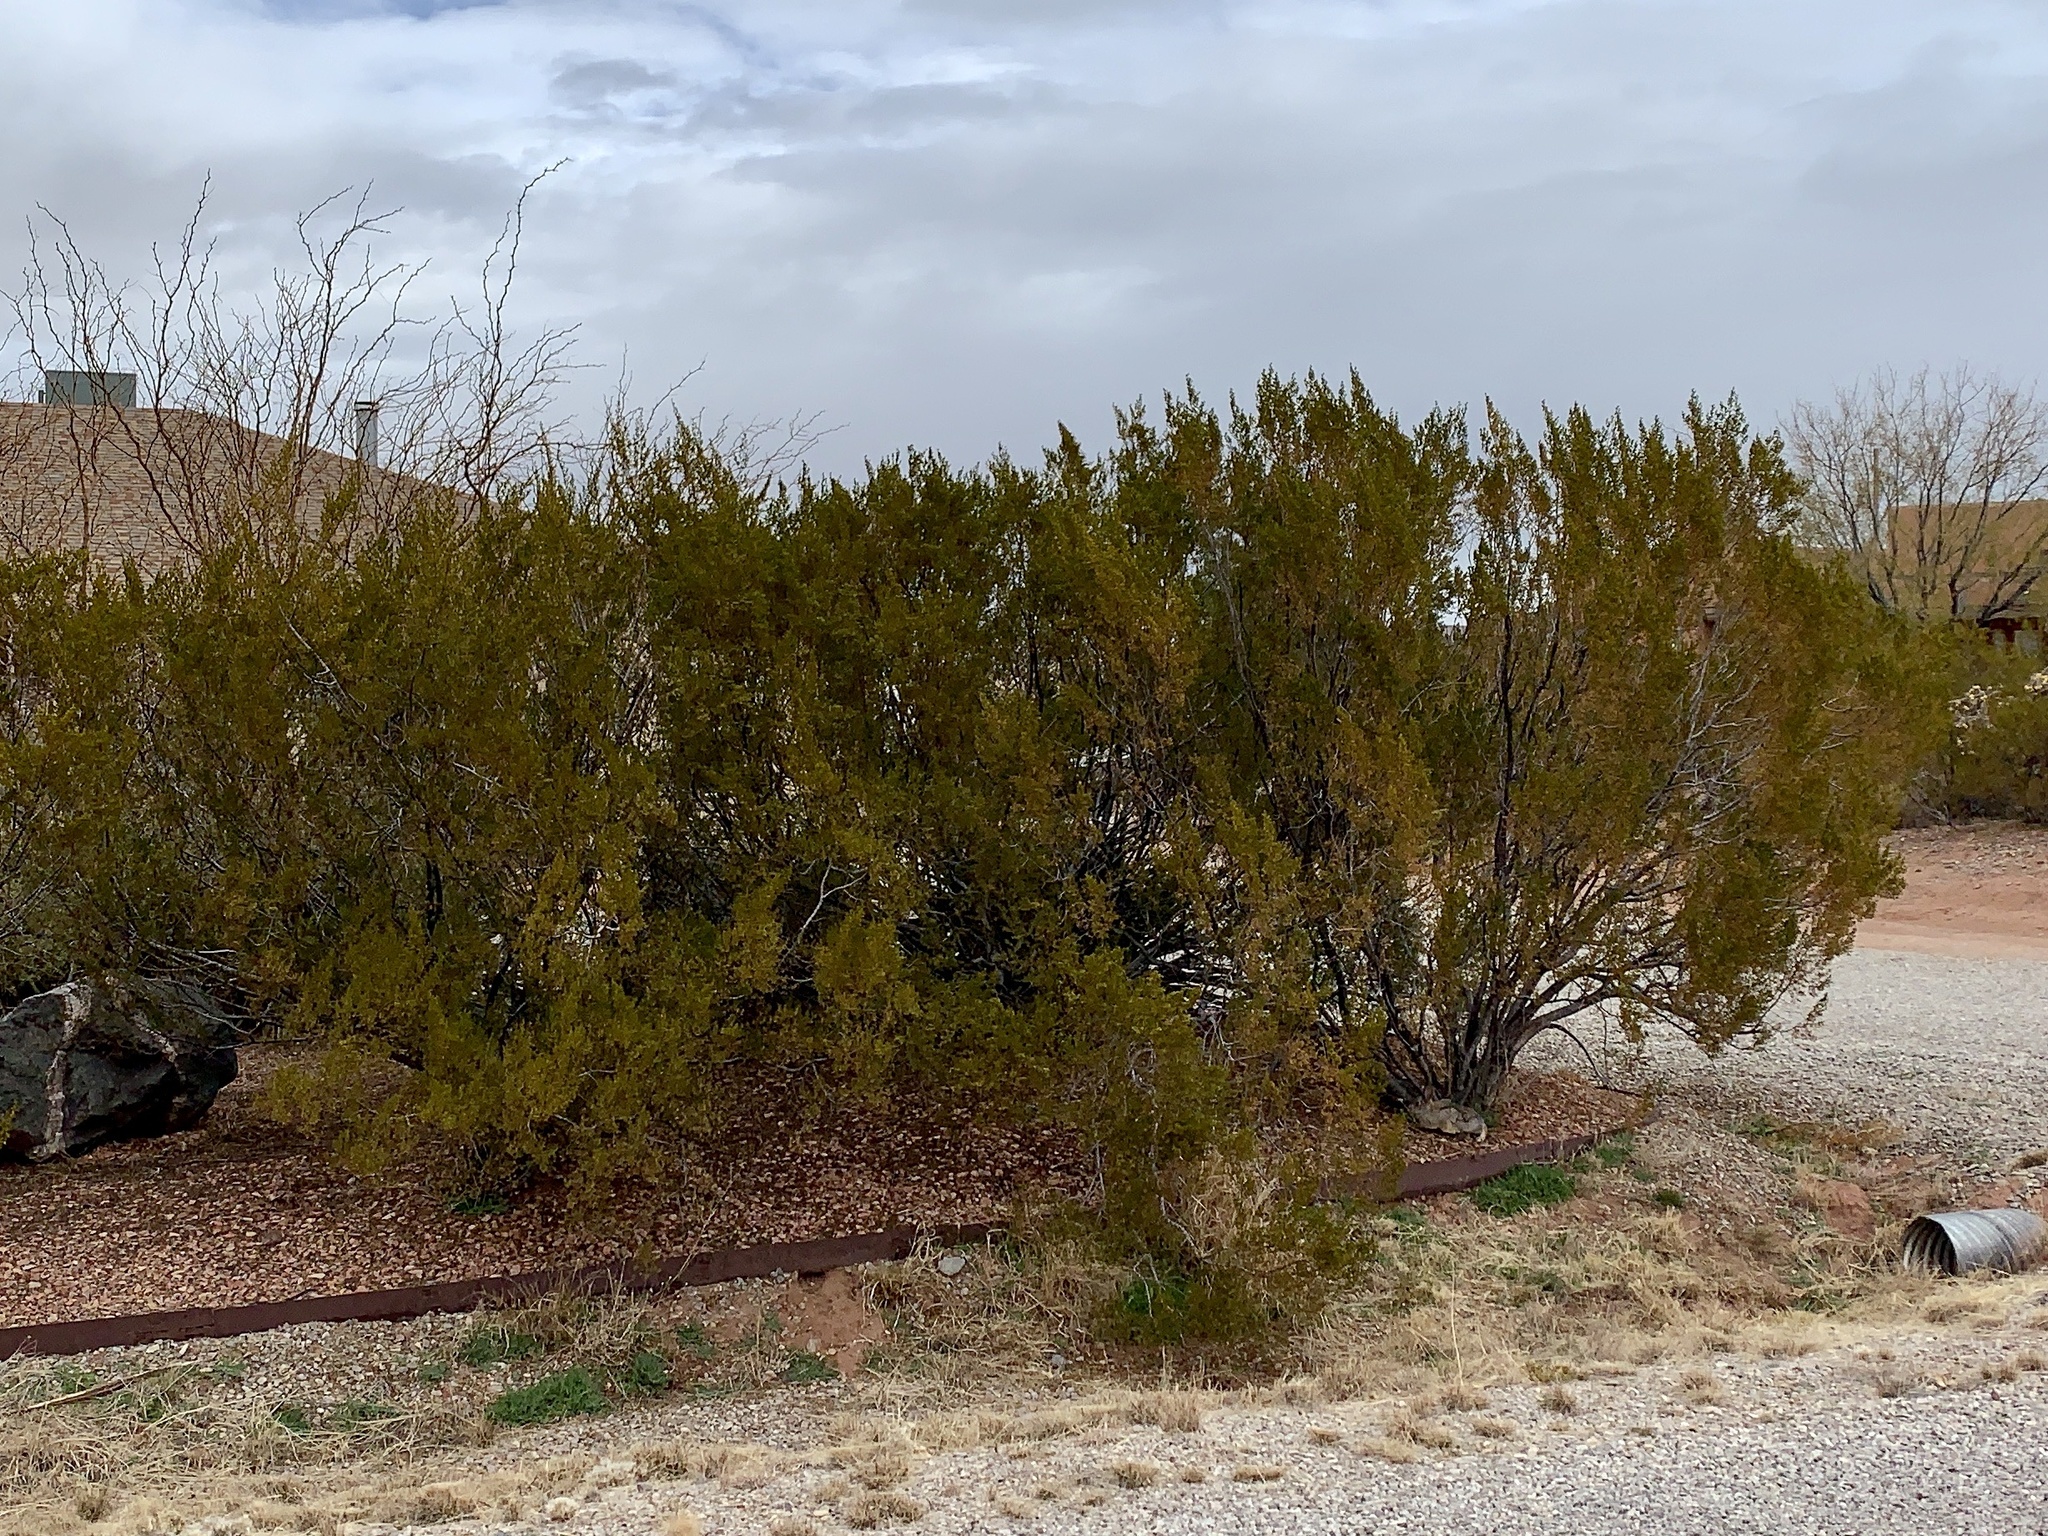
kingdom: Plantae
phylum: Tracheophyta
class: Magnoliopsida
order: Zygophyllales
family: Zygophyllaceae
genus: Larrea
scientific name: Larrea tridentata
